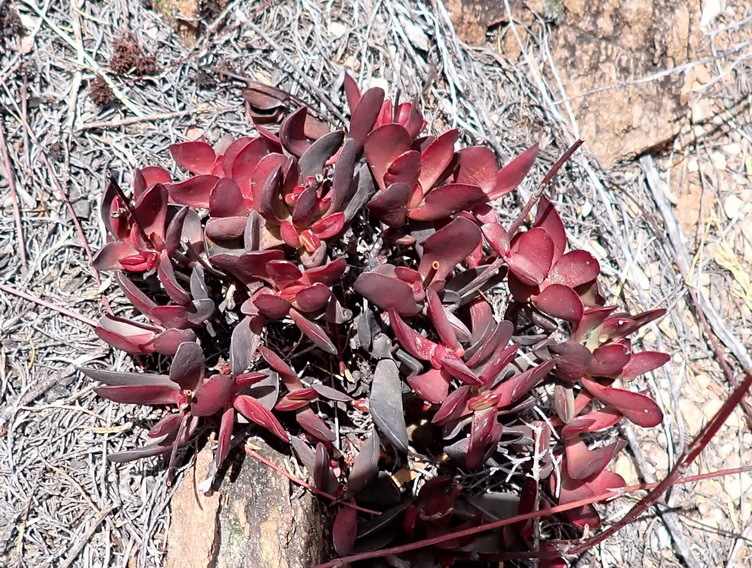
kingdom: Plantae
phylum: Tracheophyta
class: Magnoliopsida
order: Saxifragales
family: Crassulaceae
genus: Crassula
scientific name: Crassula nudicaulis
